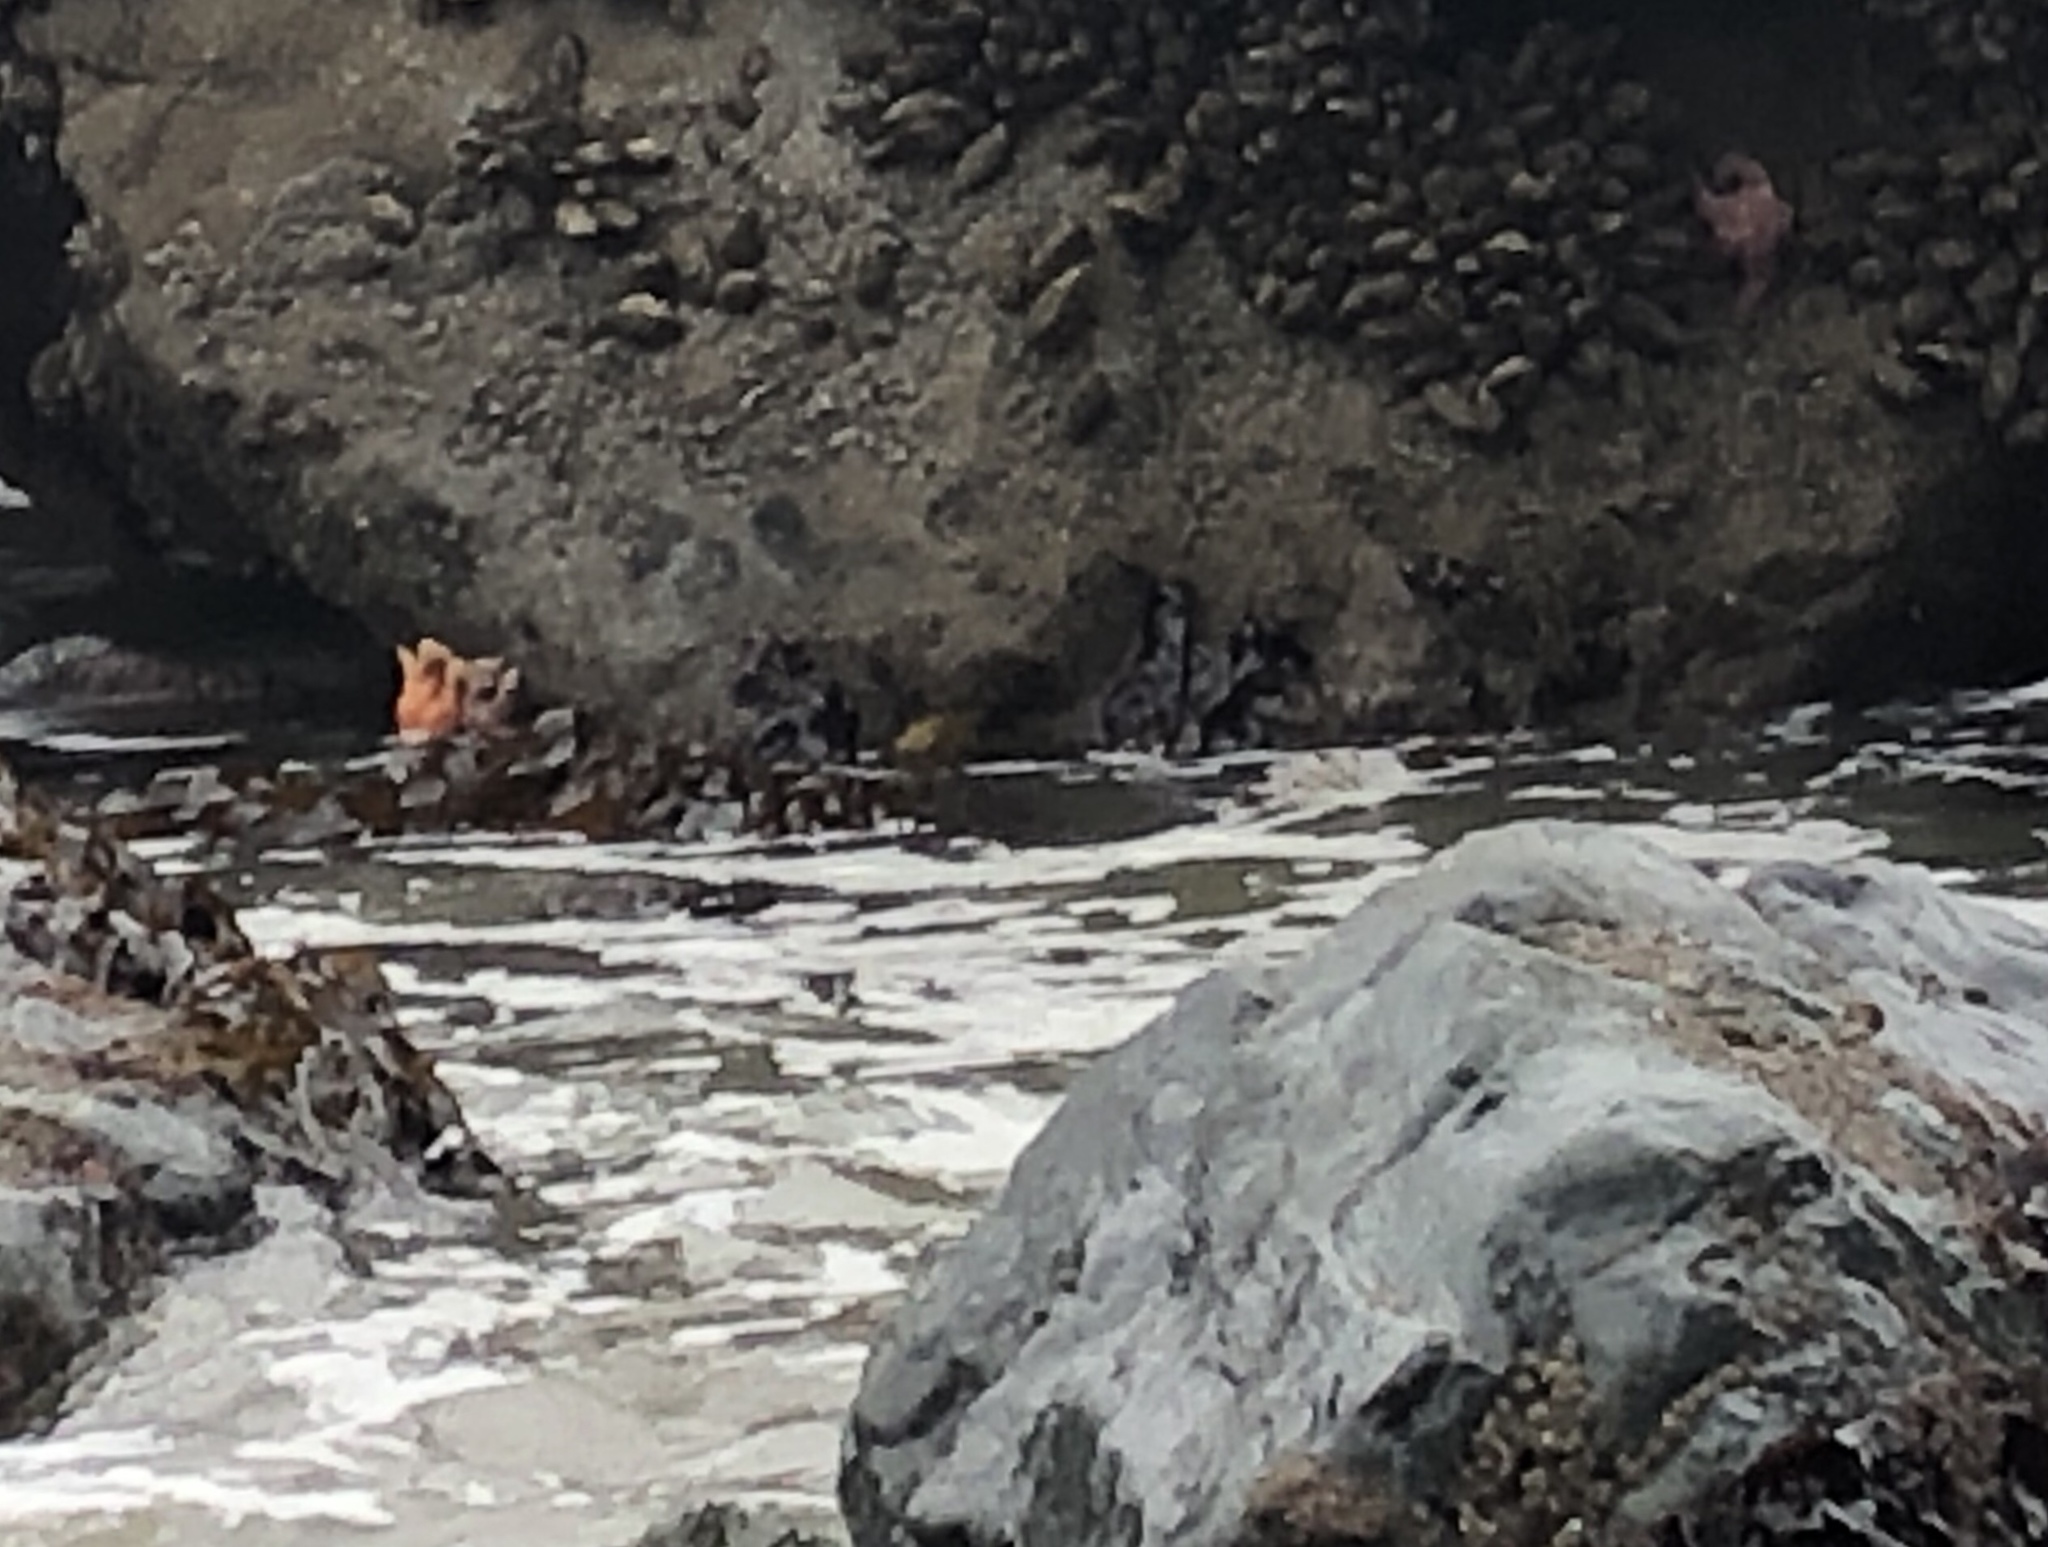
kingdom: Animalia
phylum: Echinodermata
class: Asteroidea
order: Forcipulatida
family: Asteriidae
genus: Pisaster
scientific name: Pisaster ochraceus
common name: Ochre stars
